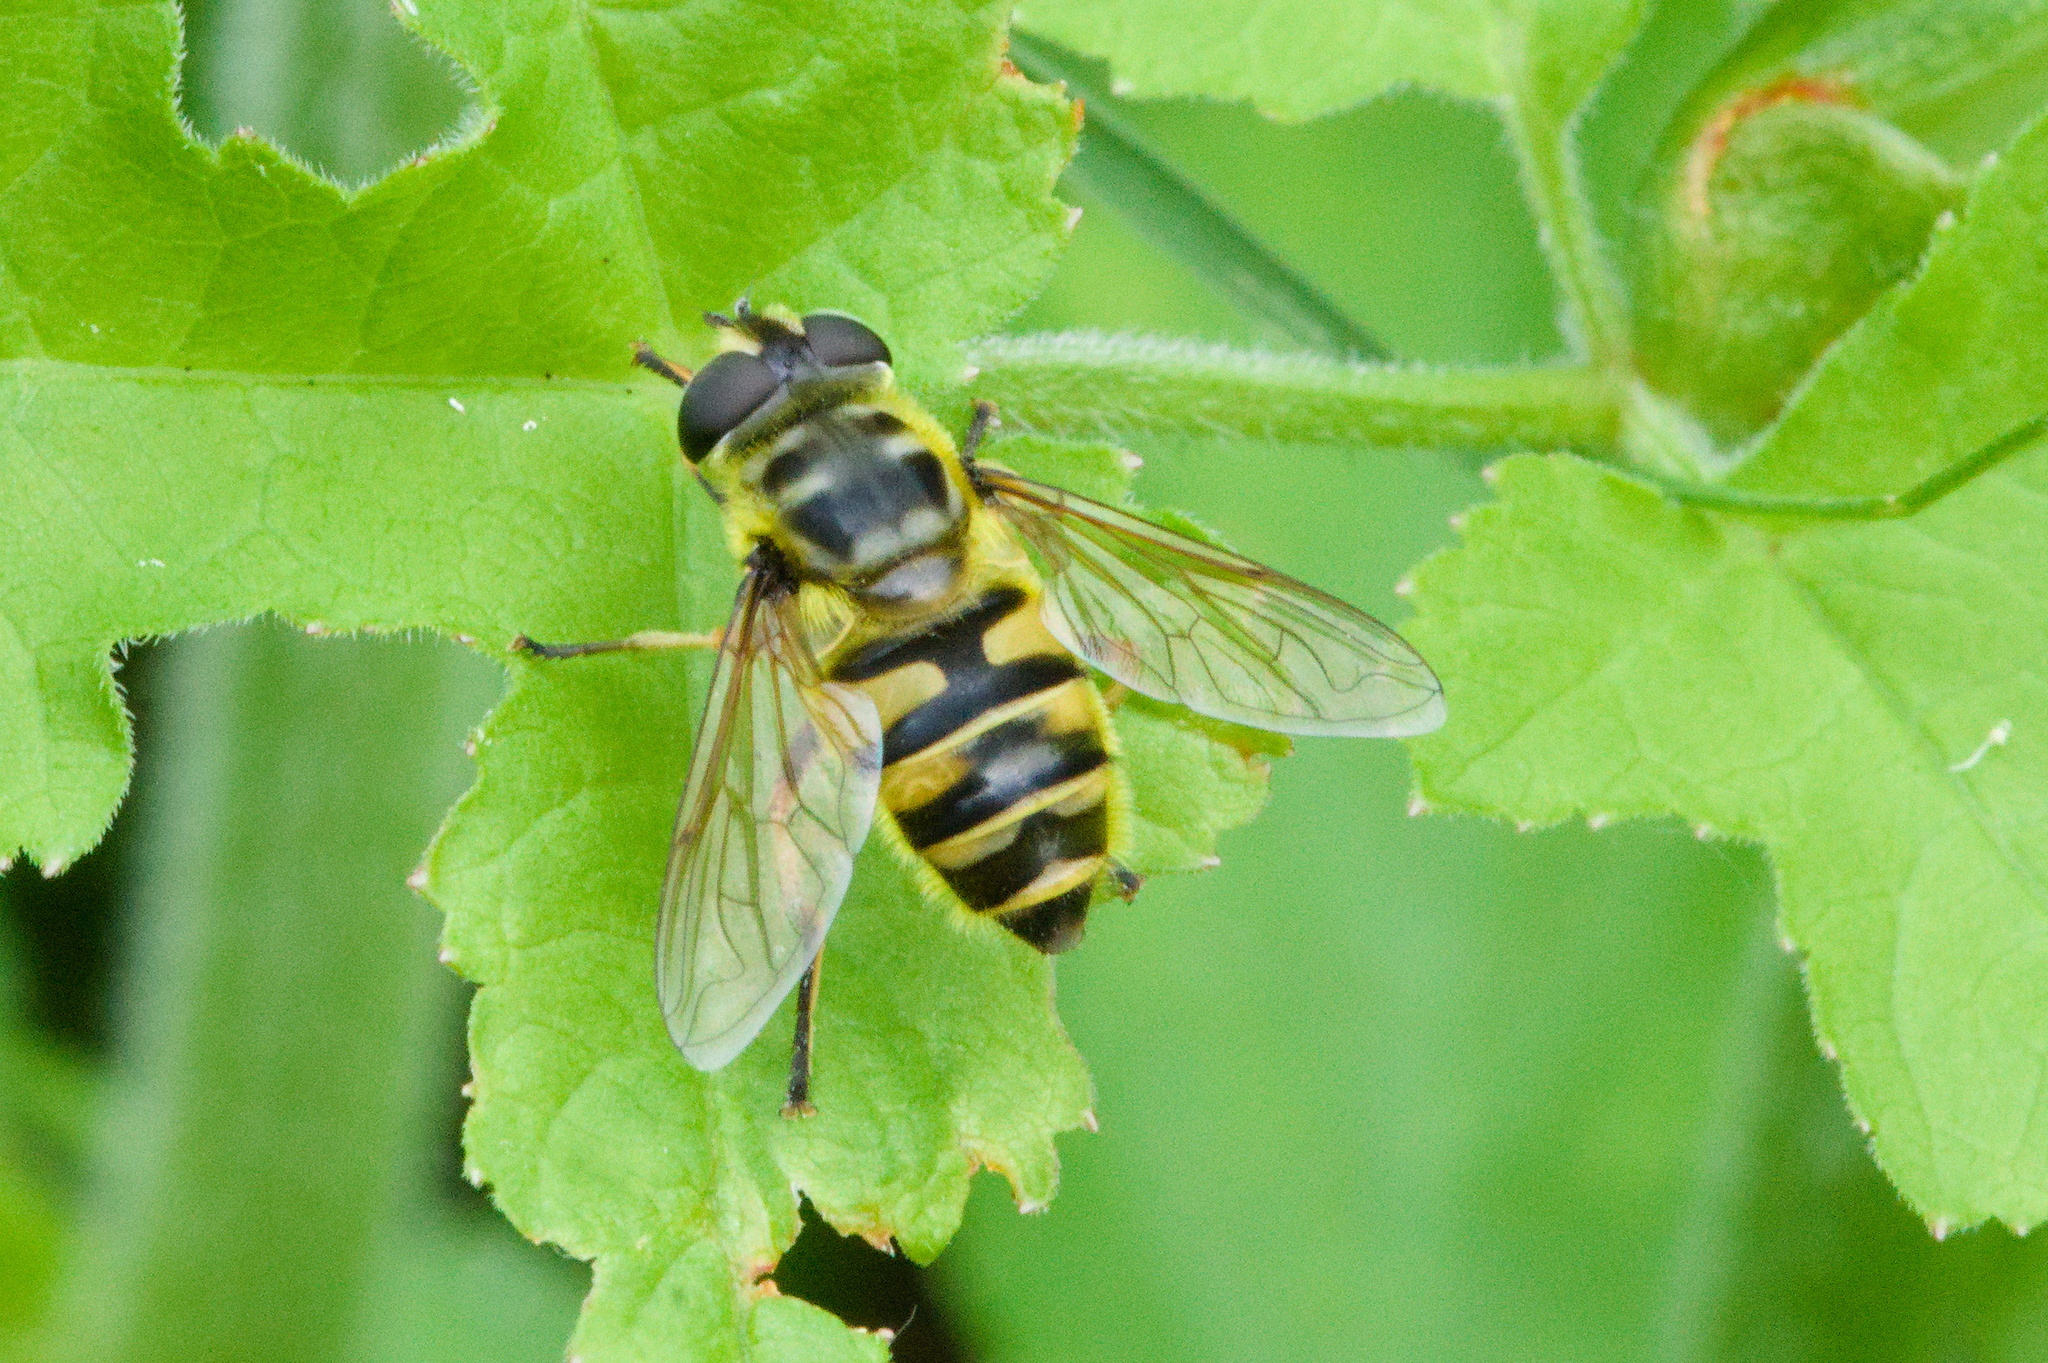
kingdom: Animalia
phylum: Arthropoda
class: Insecta
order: Diptera
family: Syrphidae
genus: Myathropa
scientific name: Myathropa florea
